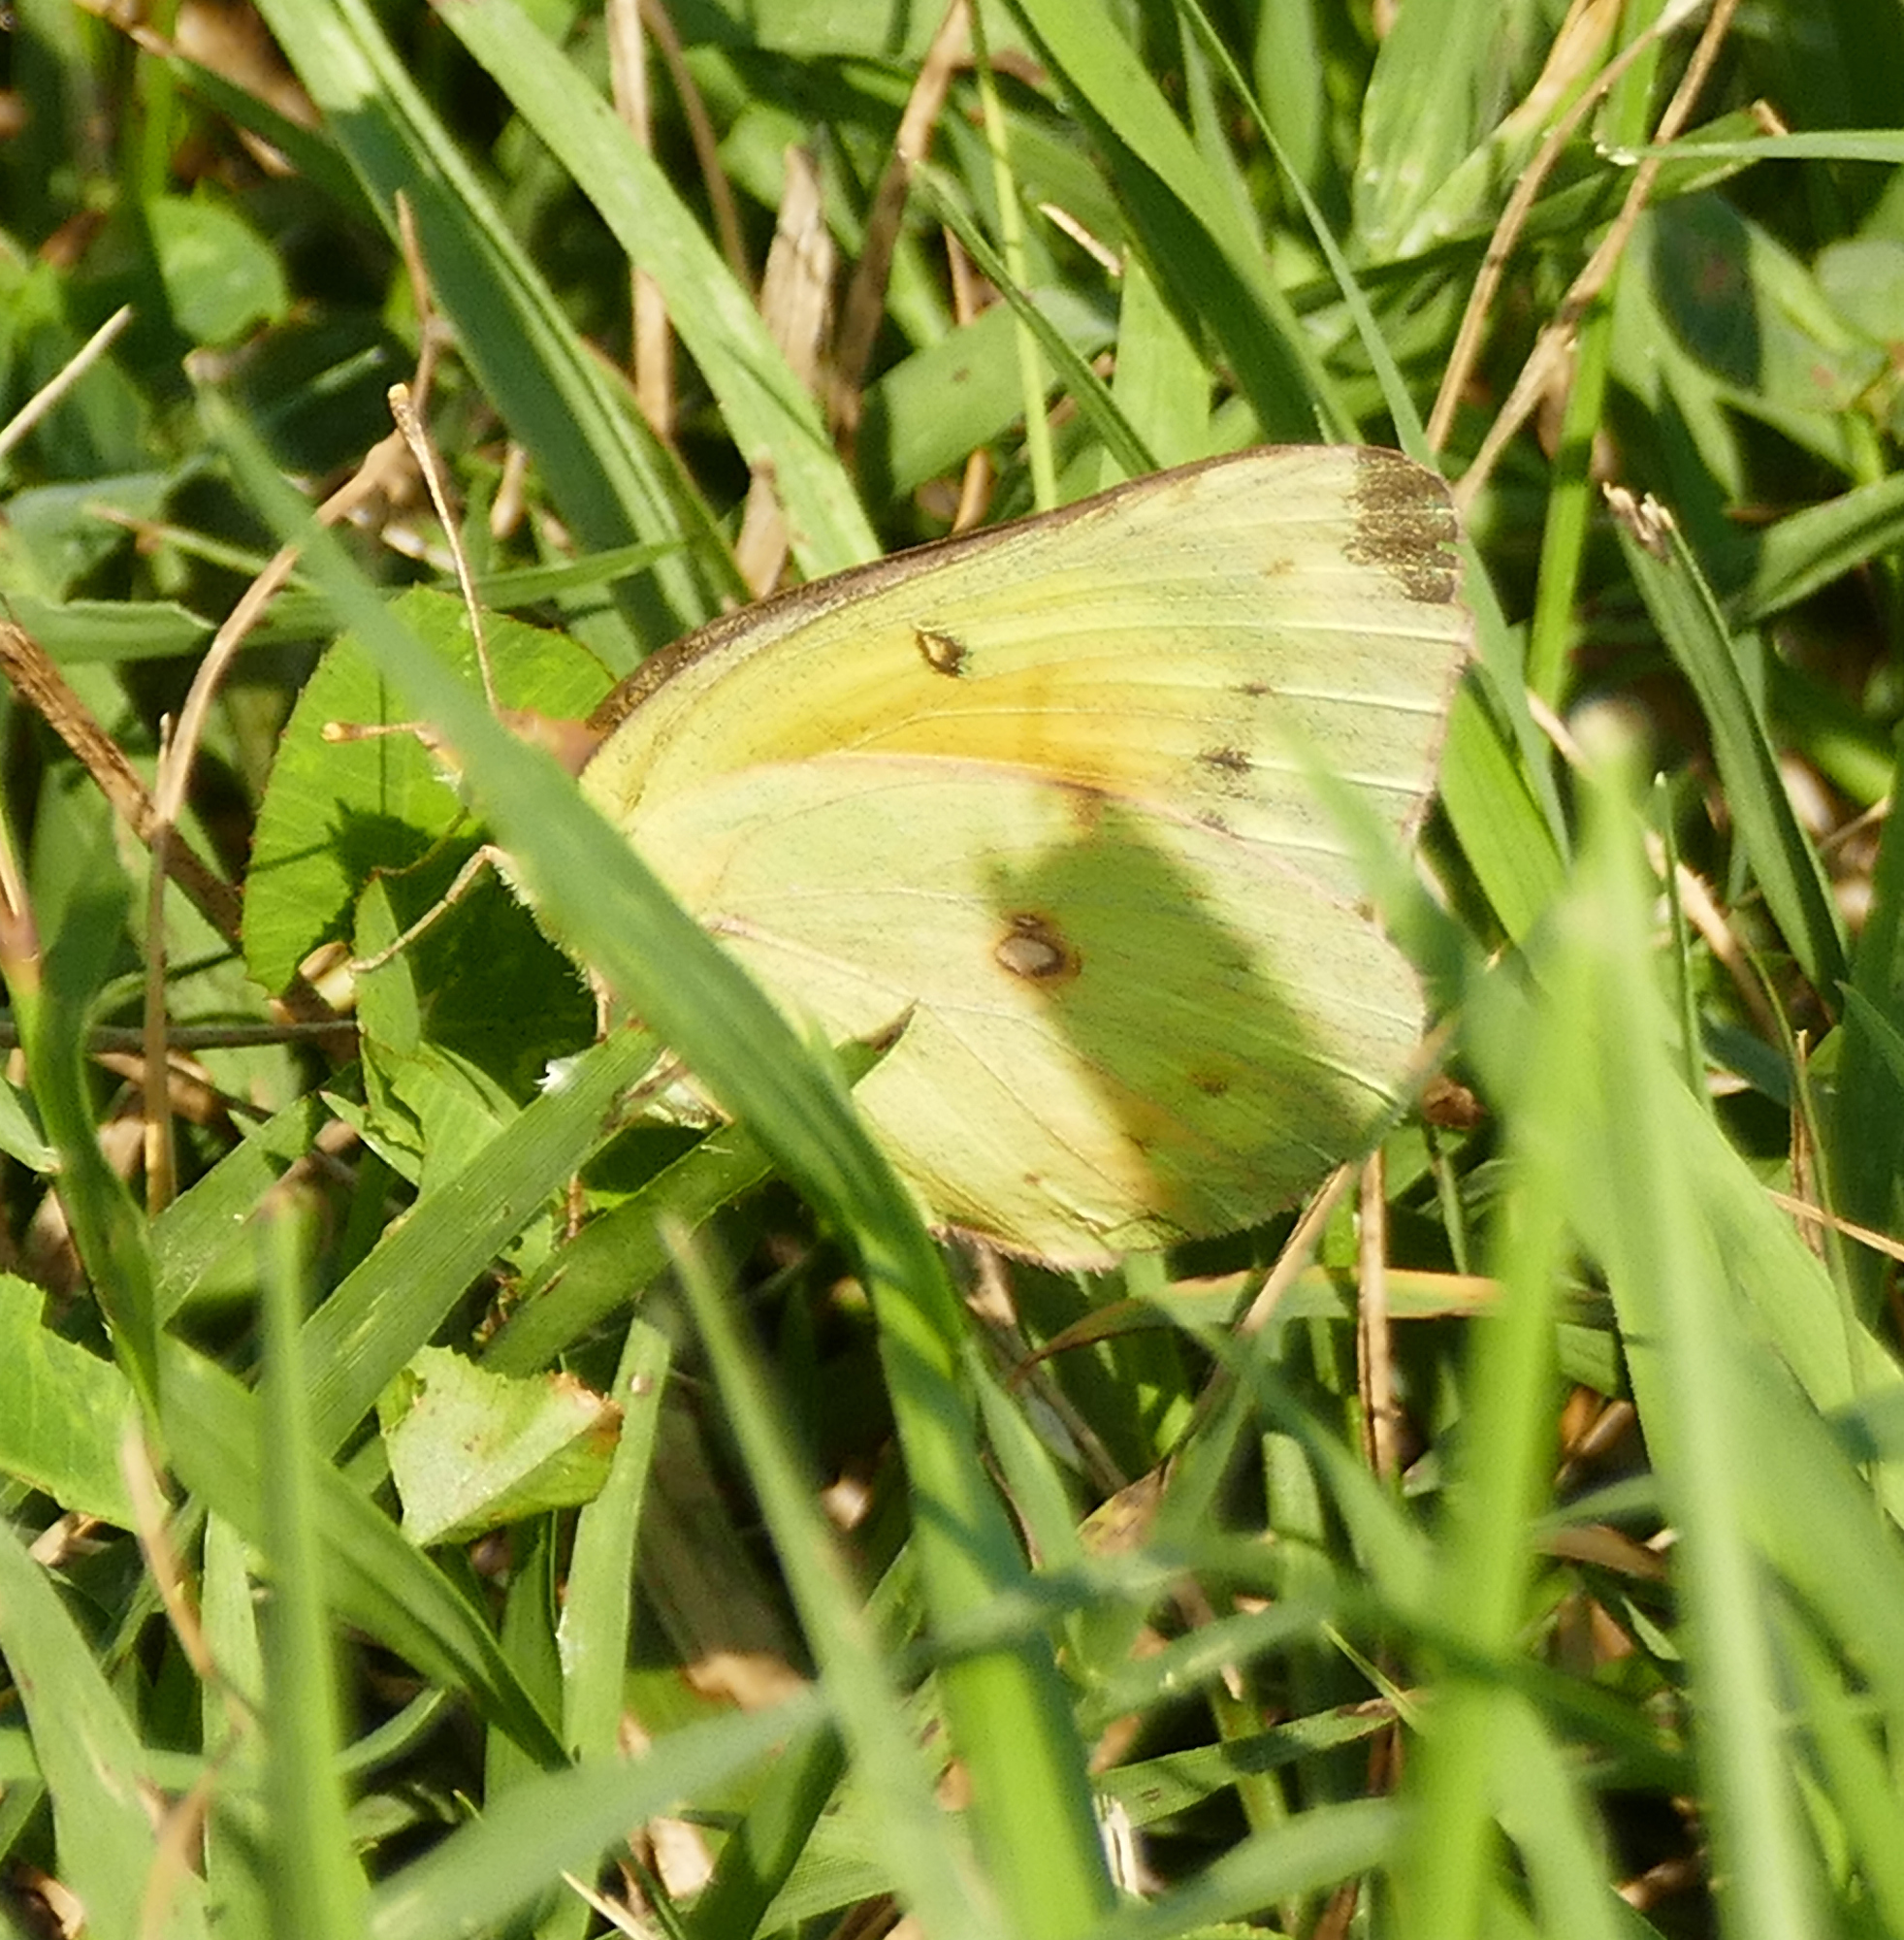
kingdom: Animalia
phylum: Arthropoda
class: Insecta
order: Lepidoptera
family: Pieridae
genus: Colias
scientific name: Colias eurytheme
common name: Alfalfa butterfly
